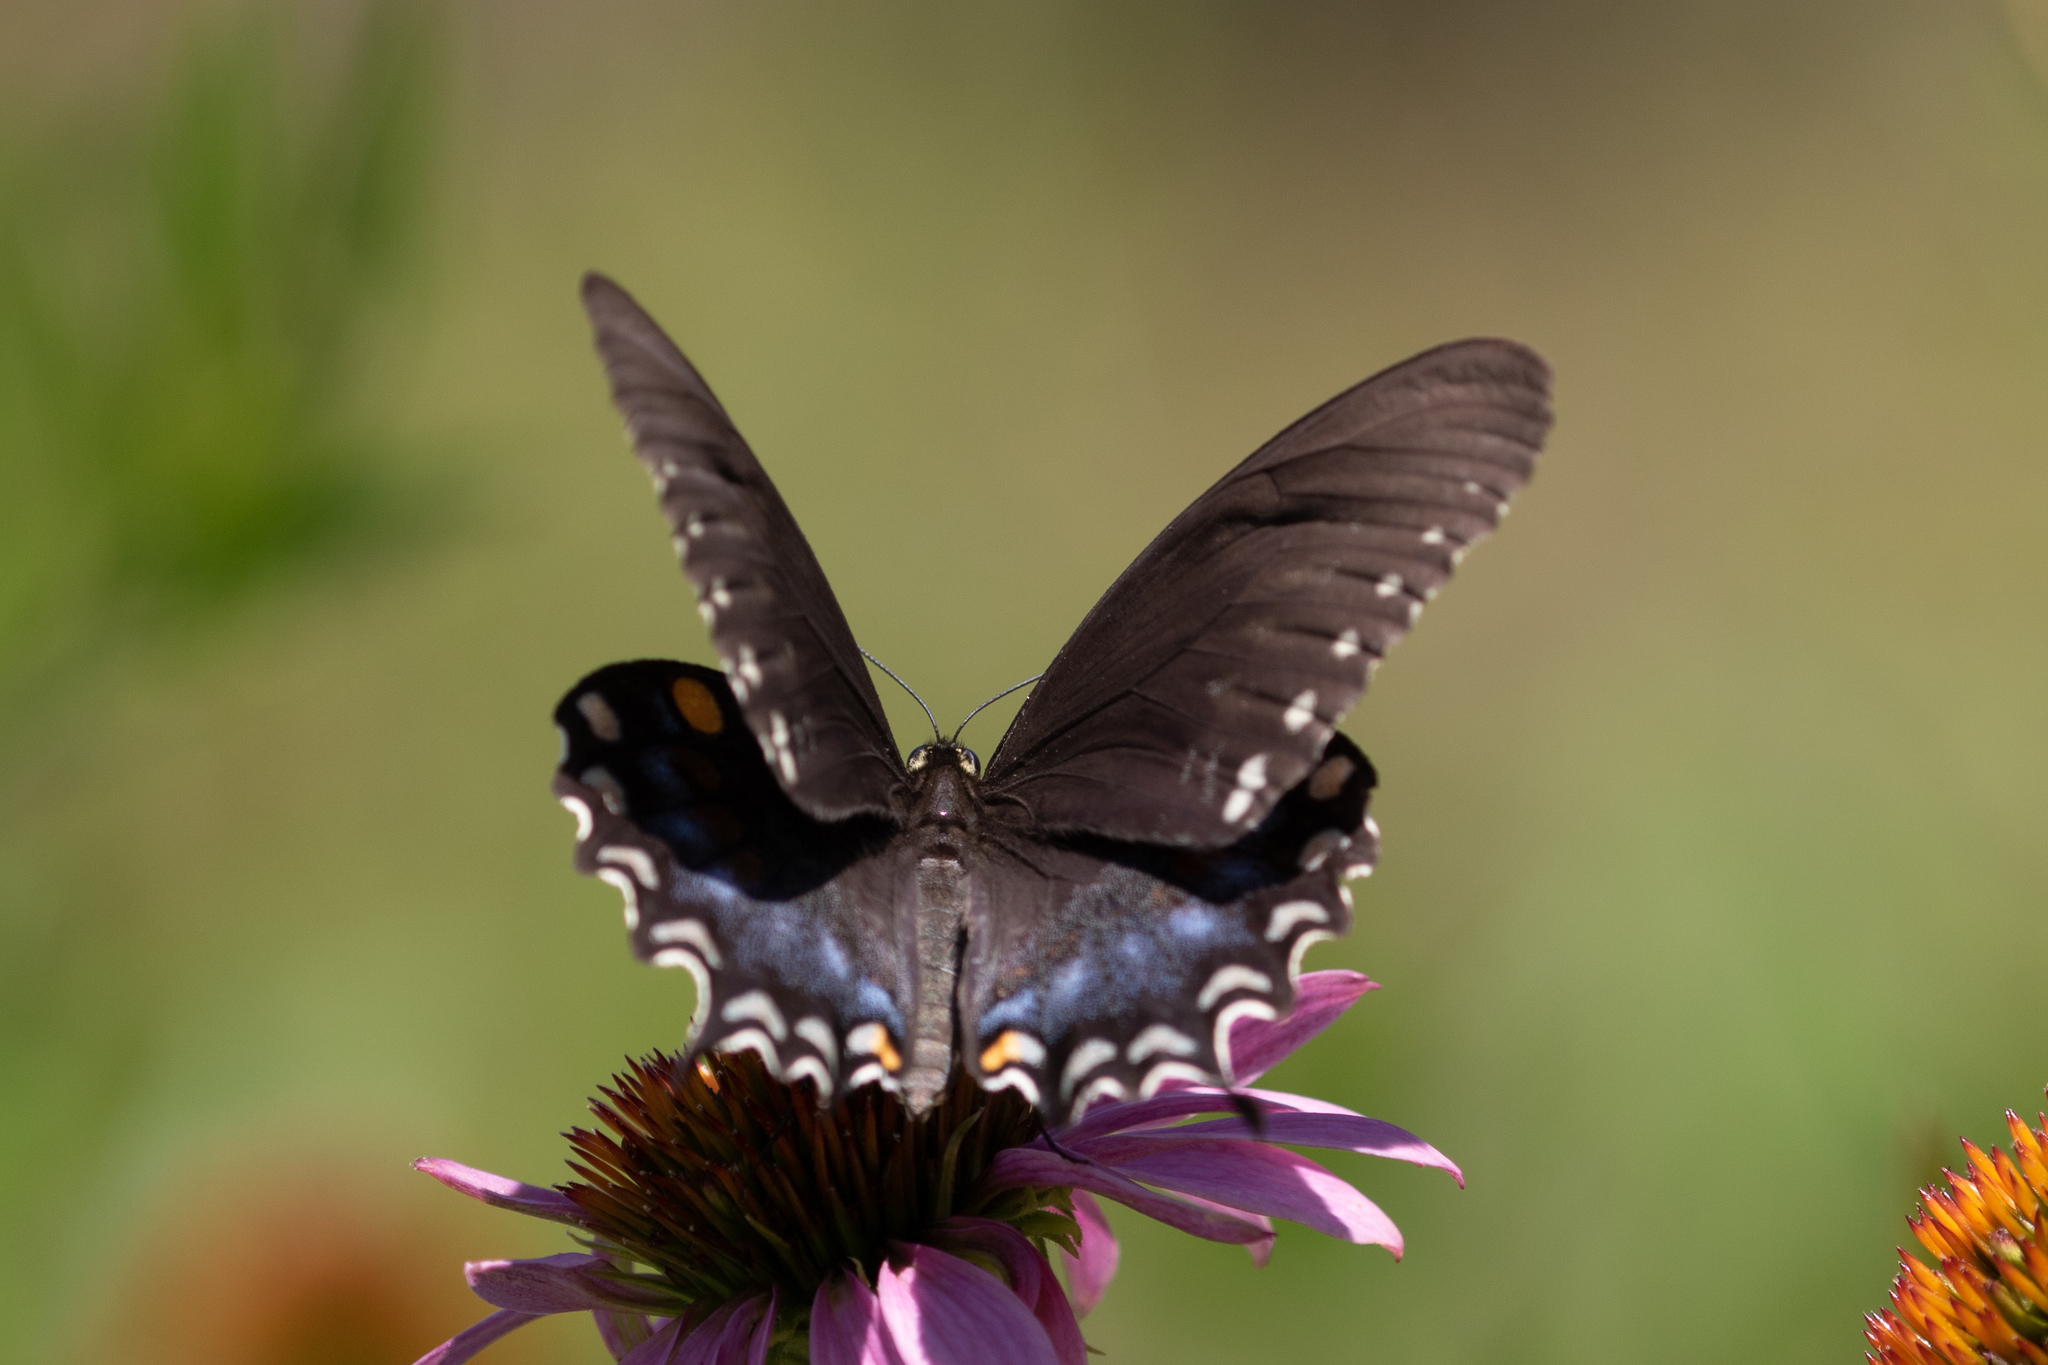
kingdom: Animalia
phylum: Arthropoda
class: Insecta
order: Lepidoptera
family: Papilionidae
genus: Papilio
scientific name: Papilio troilus
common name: Spicebush swallowtail
